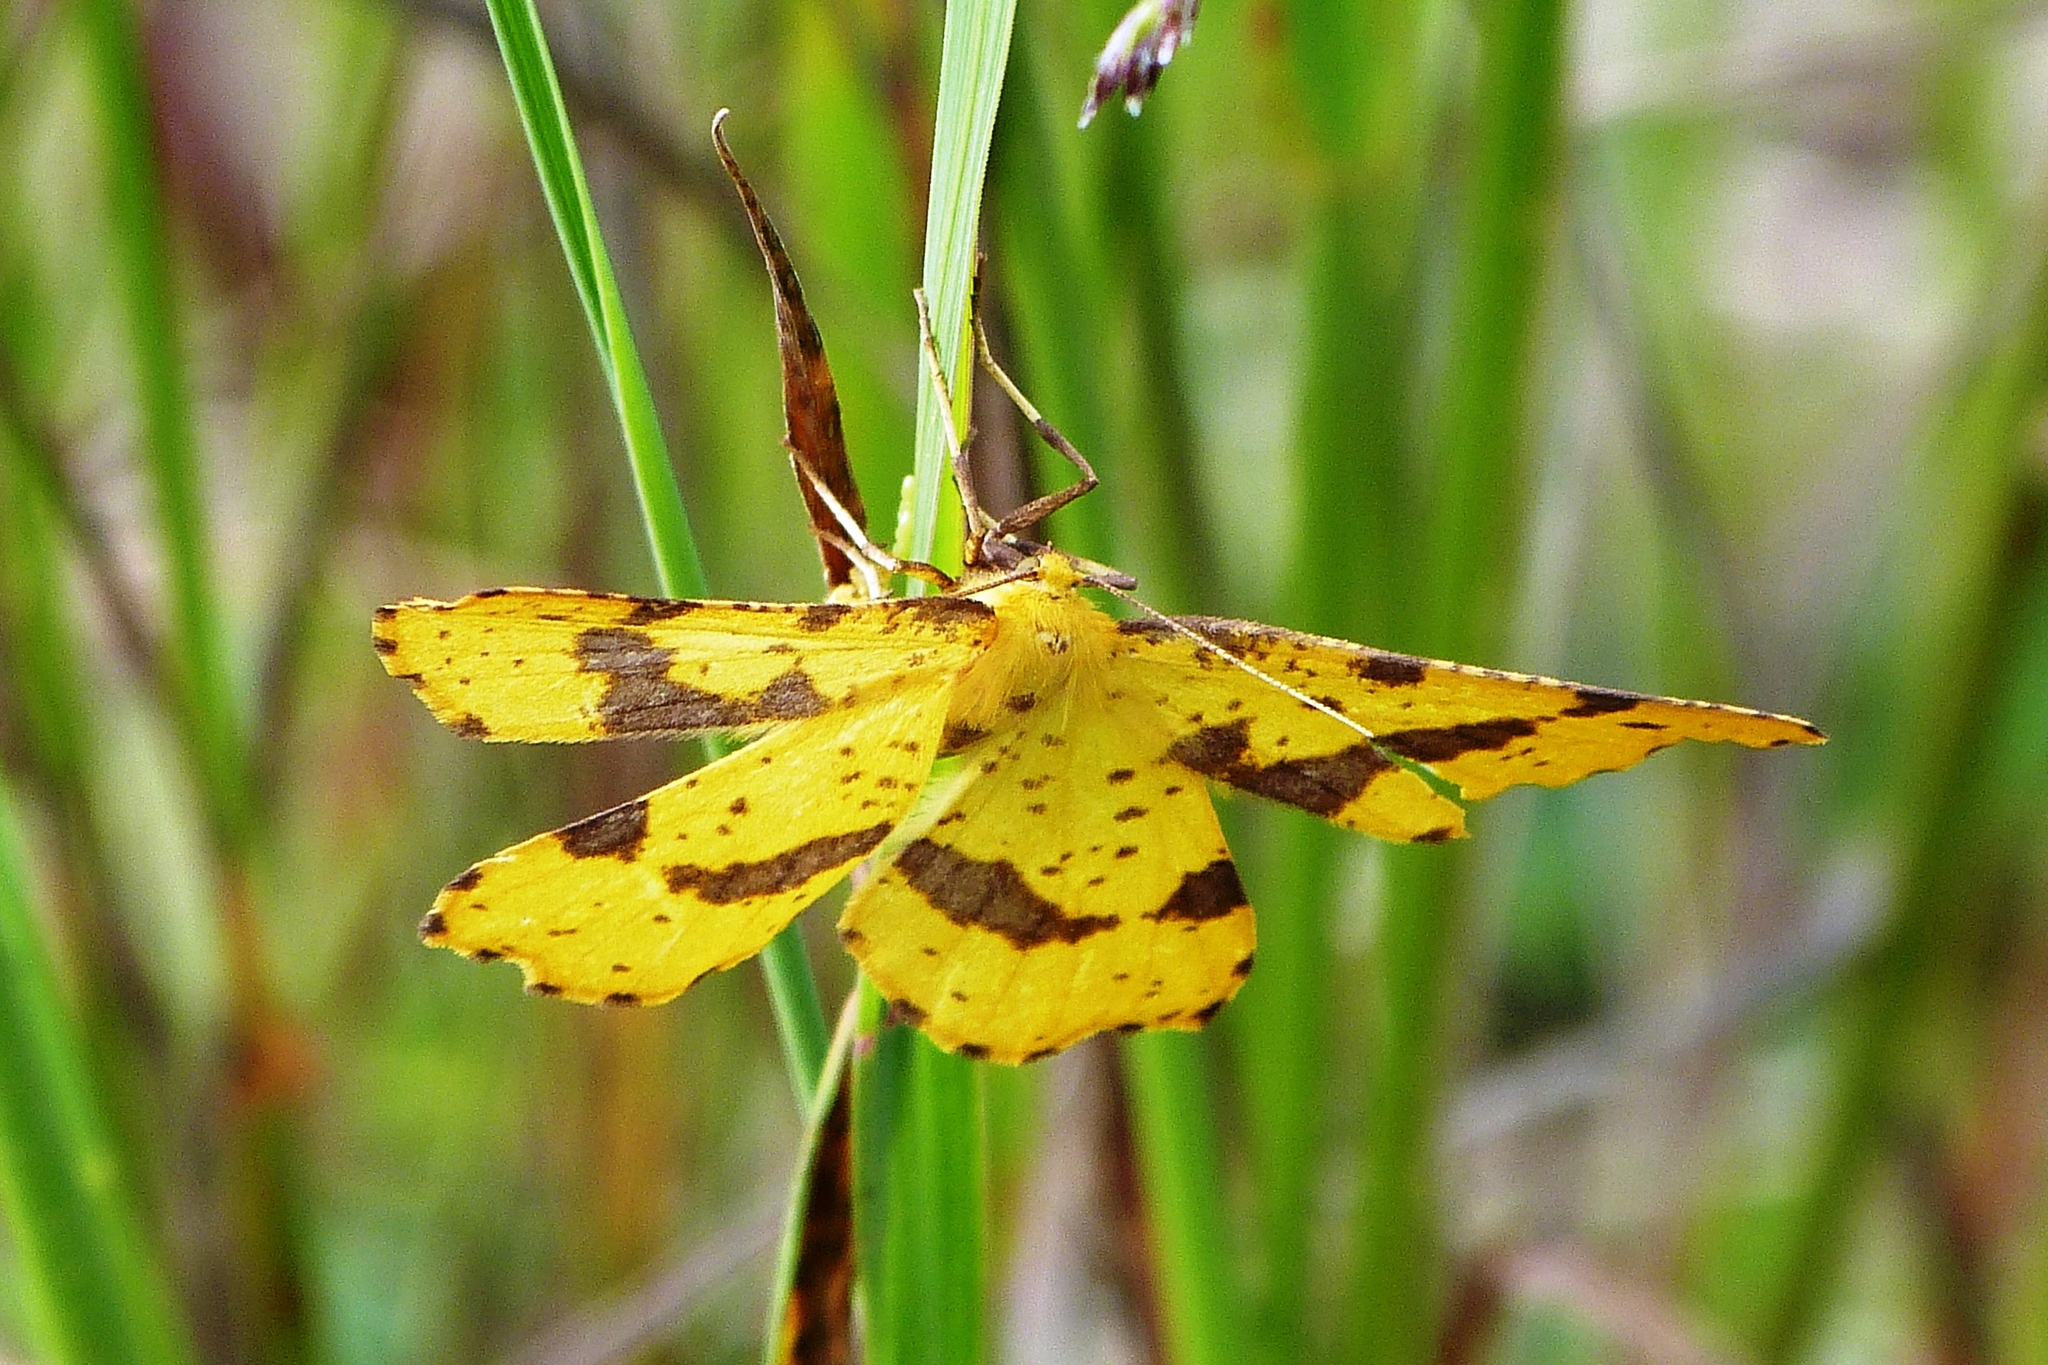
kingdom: Animalia
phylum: Arthropoda
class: Insecta
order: Lepidoptera
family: Geometridae
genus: Xanthotype
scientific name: Xanthotype
